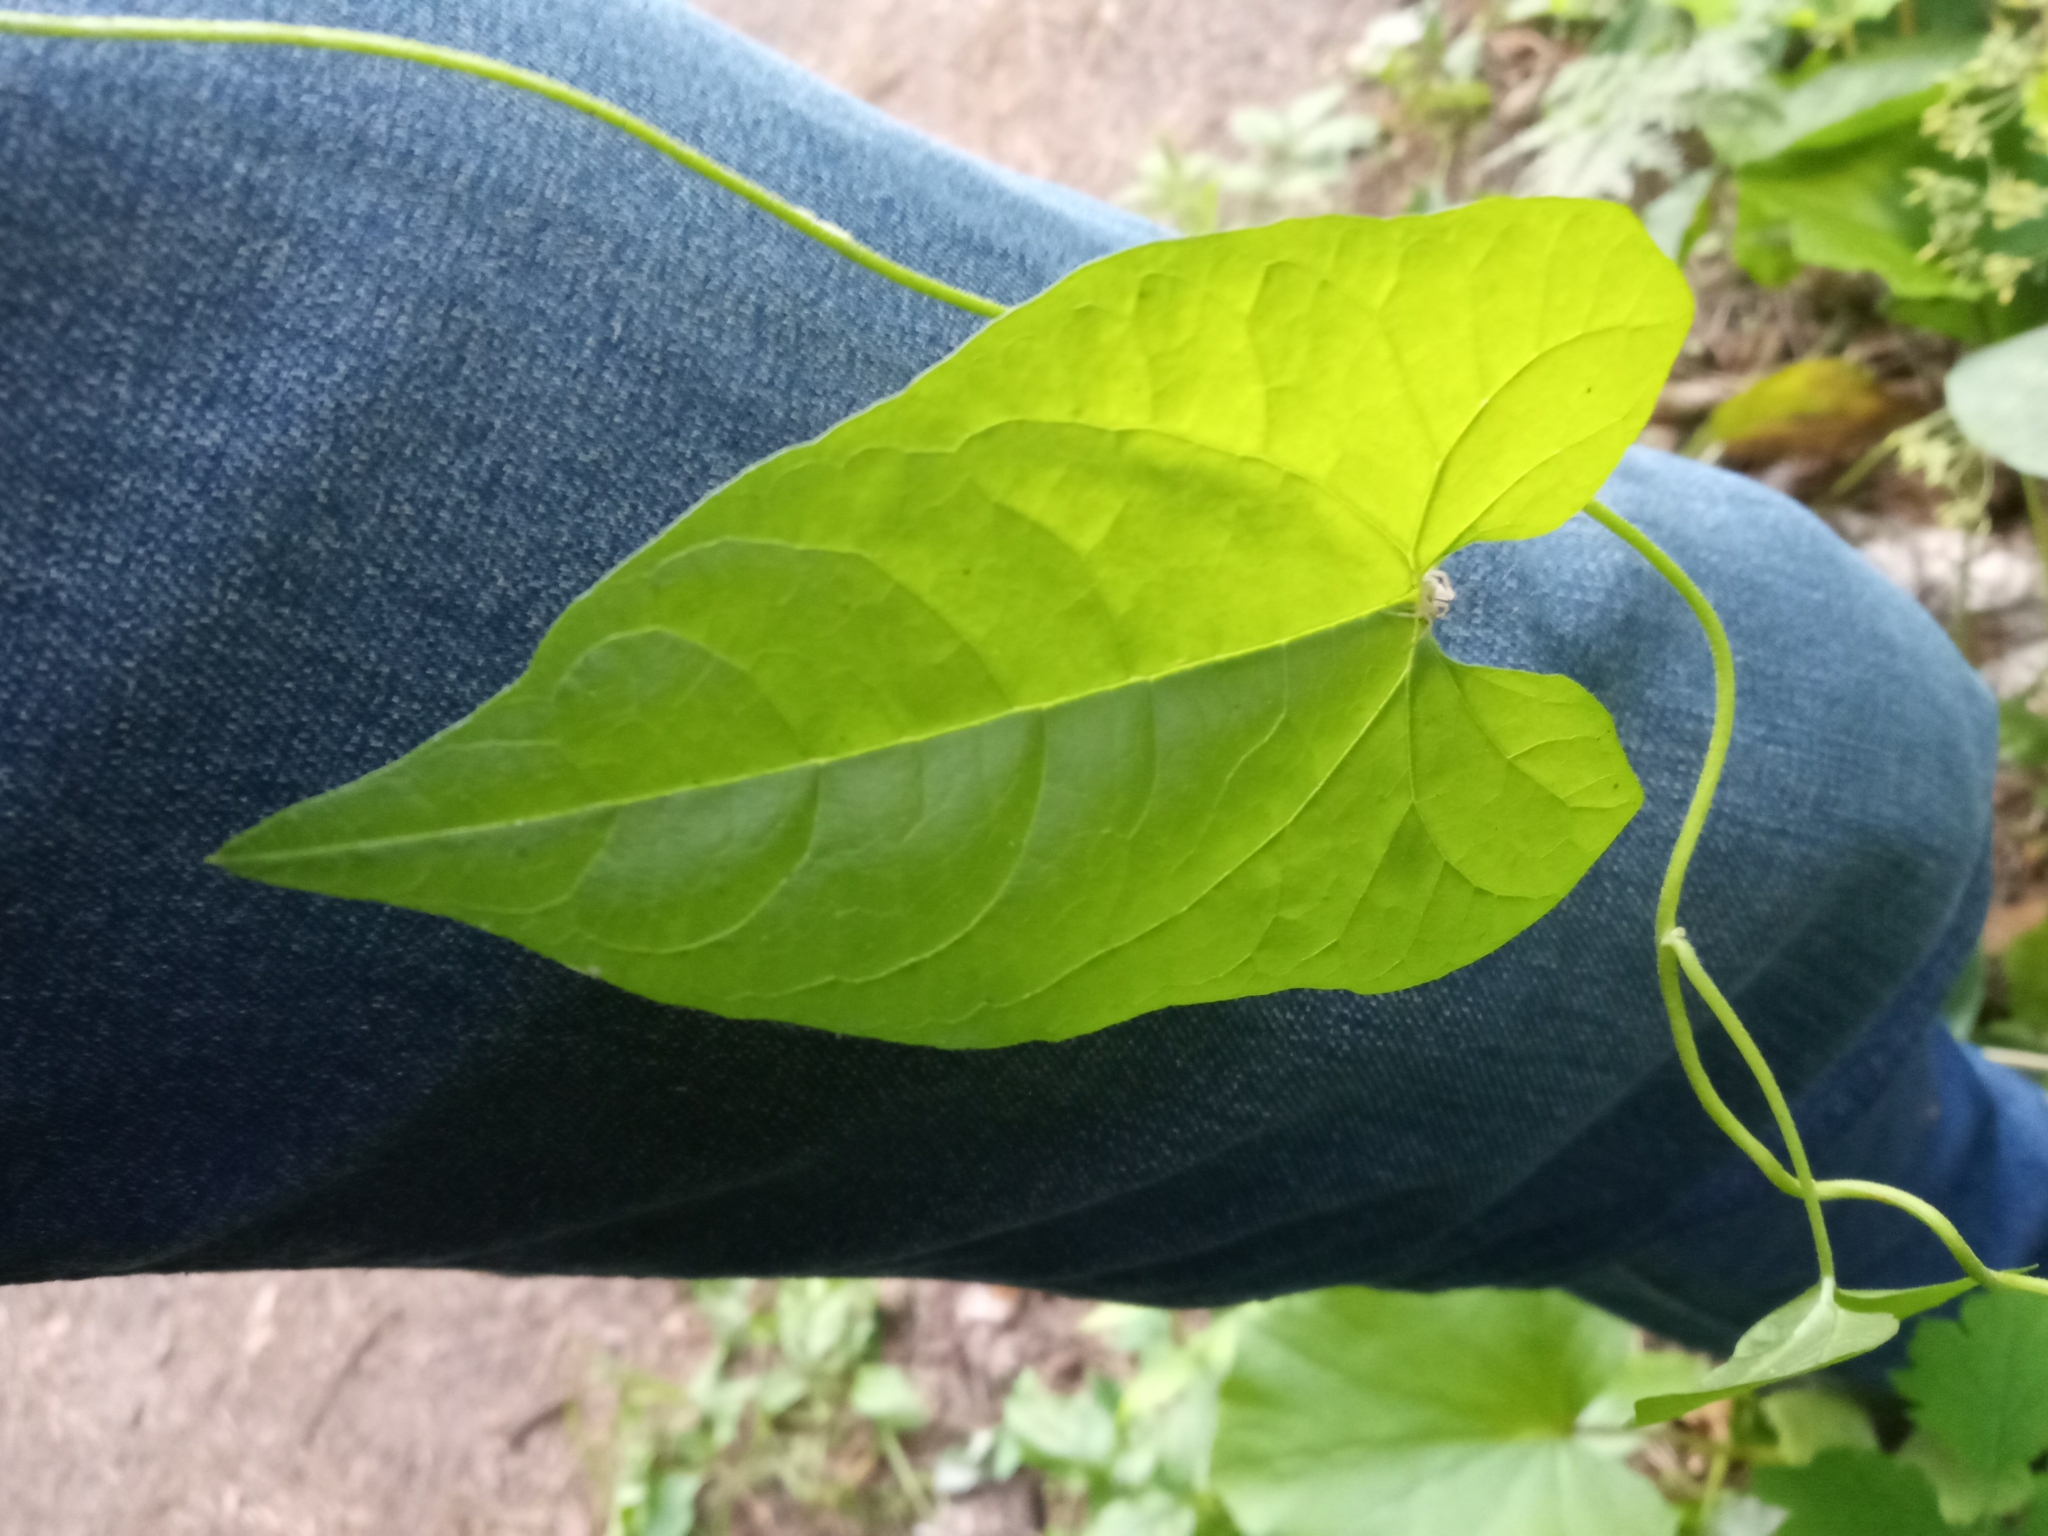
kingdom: Plantae
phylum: Tracheophyta
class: Magnoliopsida
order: Solanales
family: Convolvulaceae
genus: Calystegia
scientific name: Calystegia sepium
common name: Hedge bindweed
